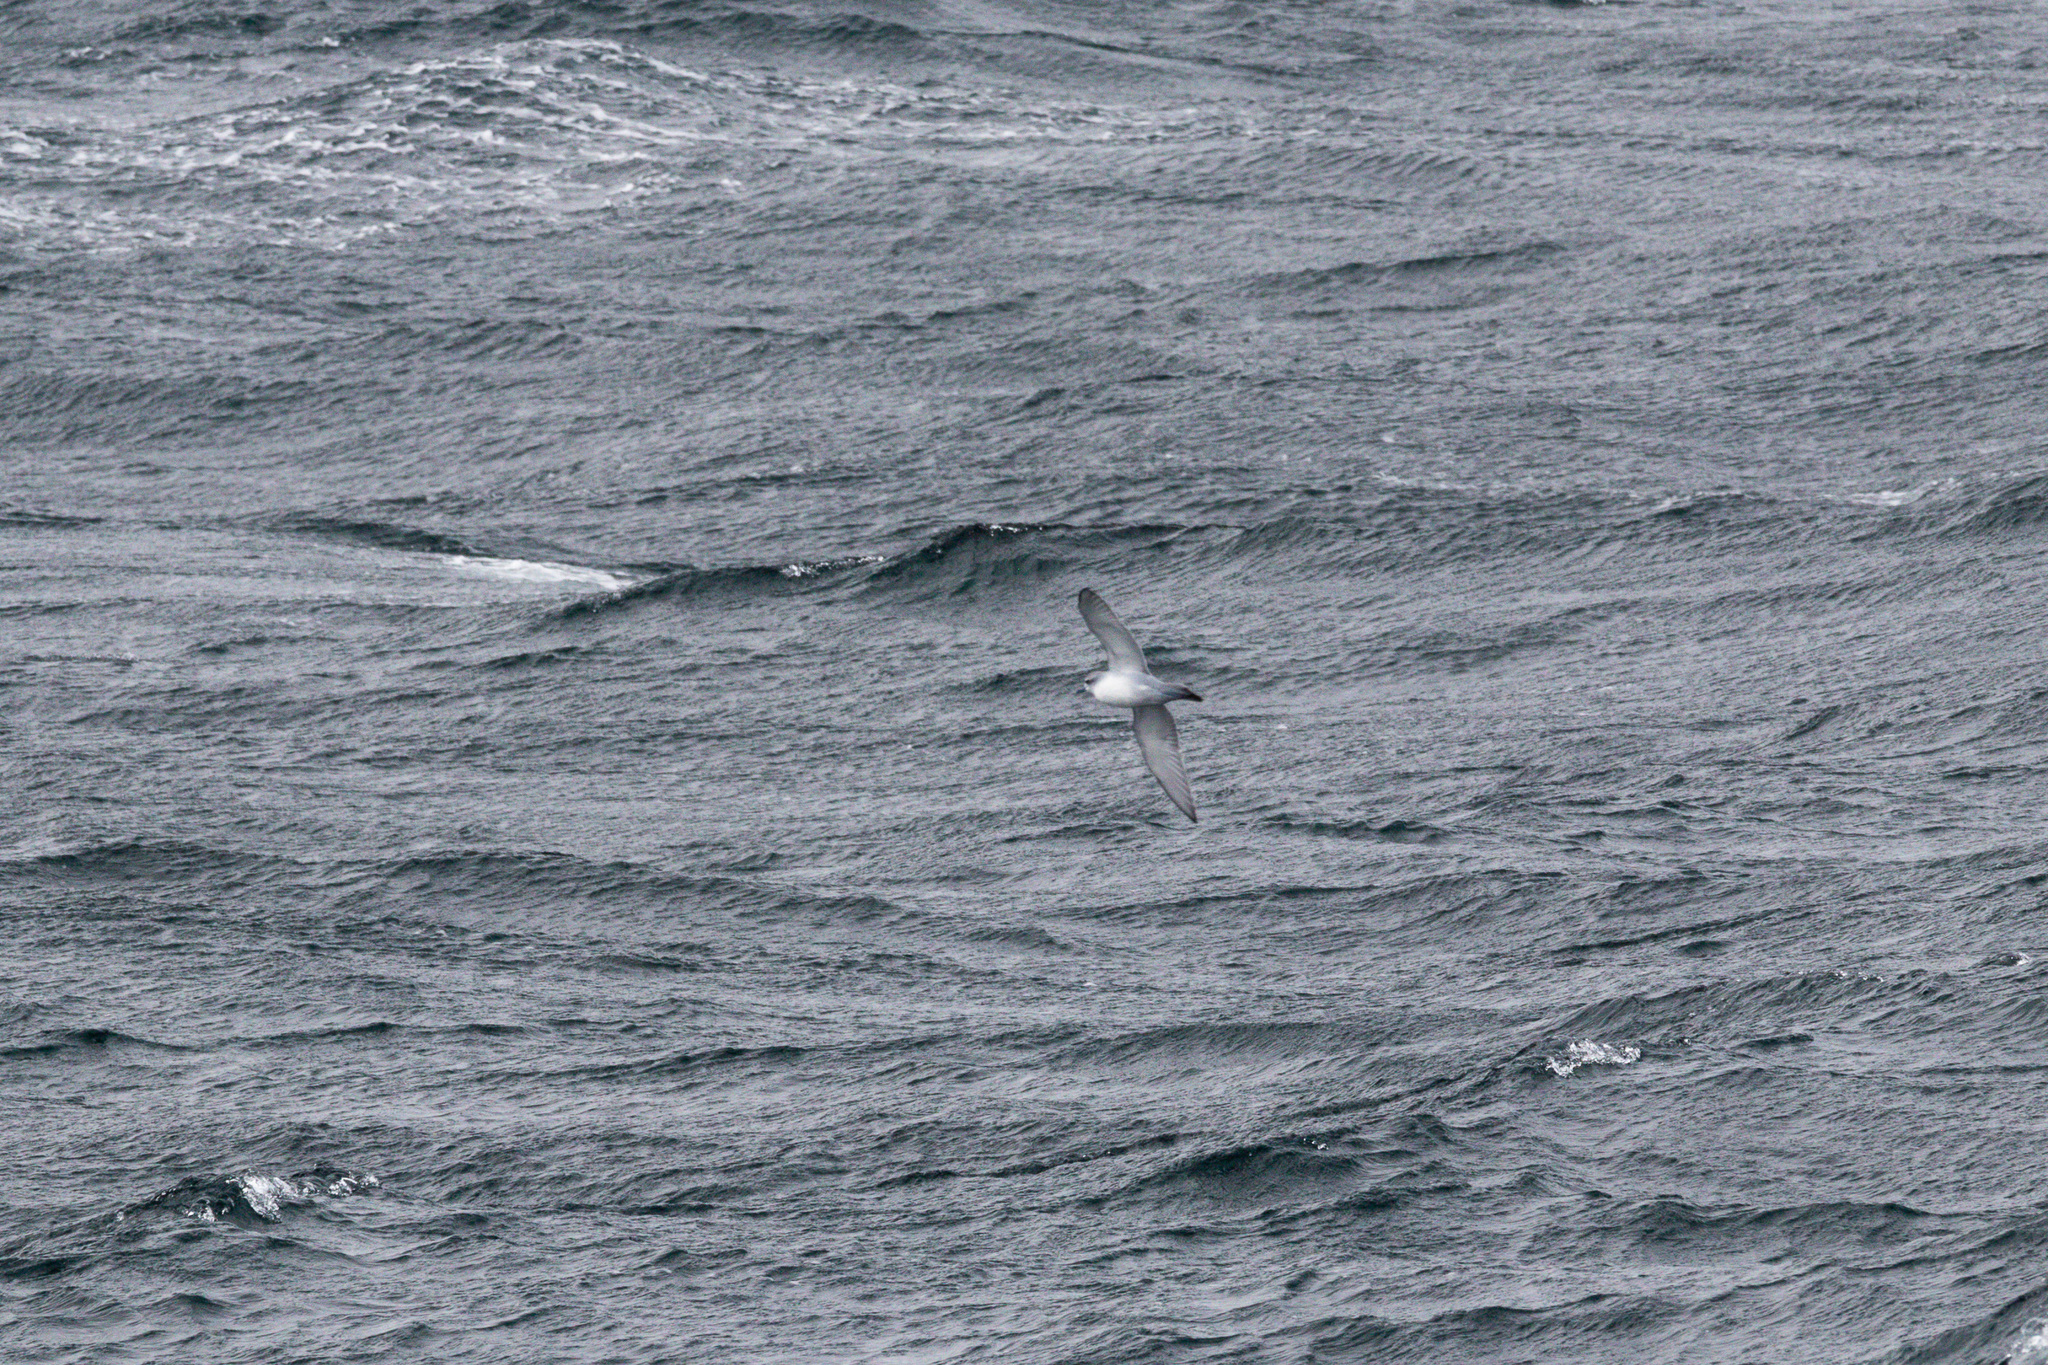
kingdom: Animalia
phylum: Chordata
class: Aves
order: Procellariiformes
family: Procellariidae
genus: Pachyptila
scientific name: Pachyptila turtur
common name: Fairy prion
